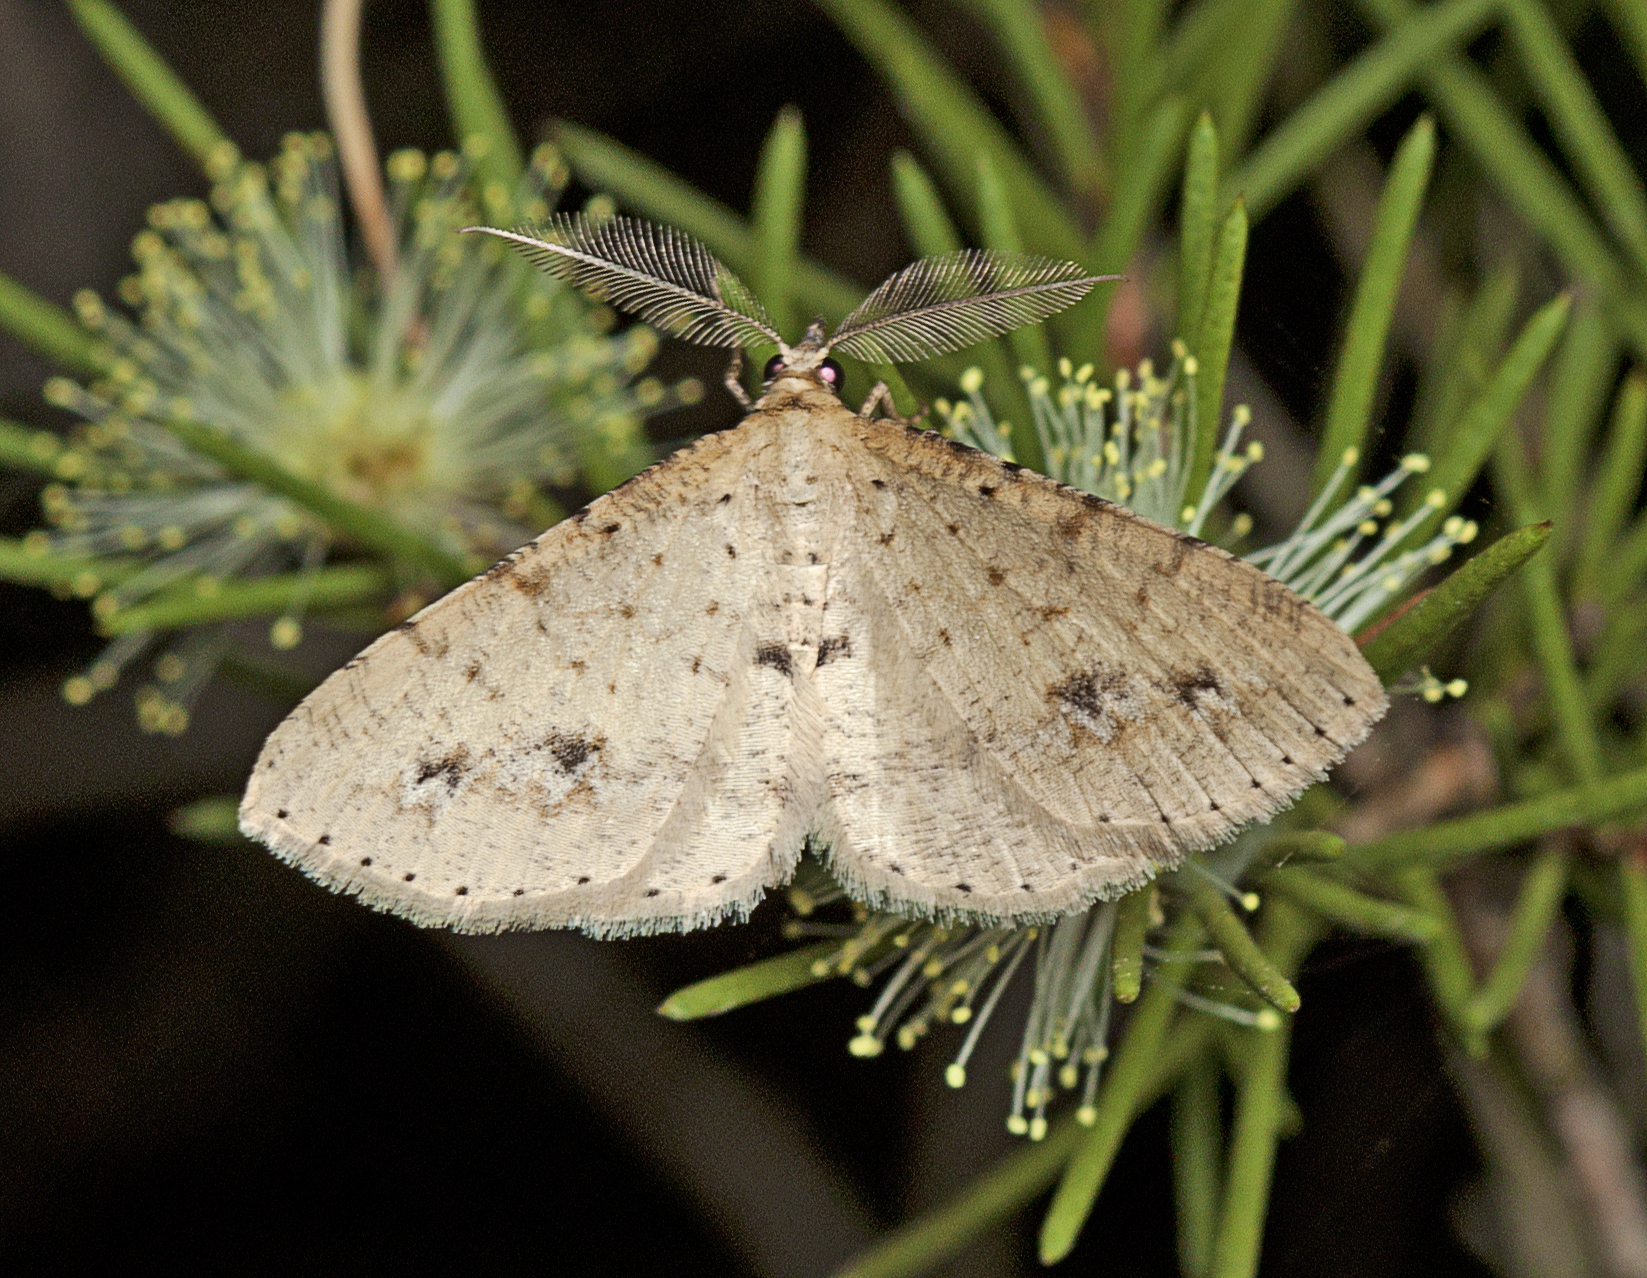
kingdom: Animalia
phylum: Arthropoda
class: Insecta
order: Lepidoptera
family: Geometridae
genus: Casbia
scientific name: Casbia eremias
